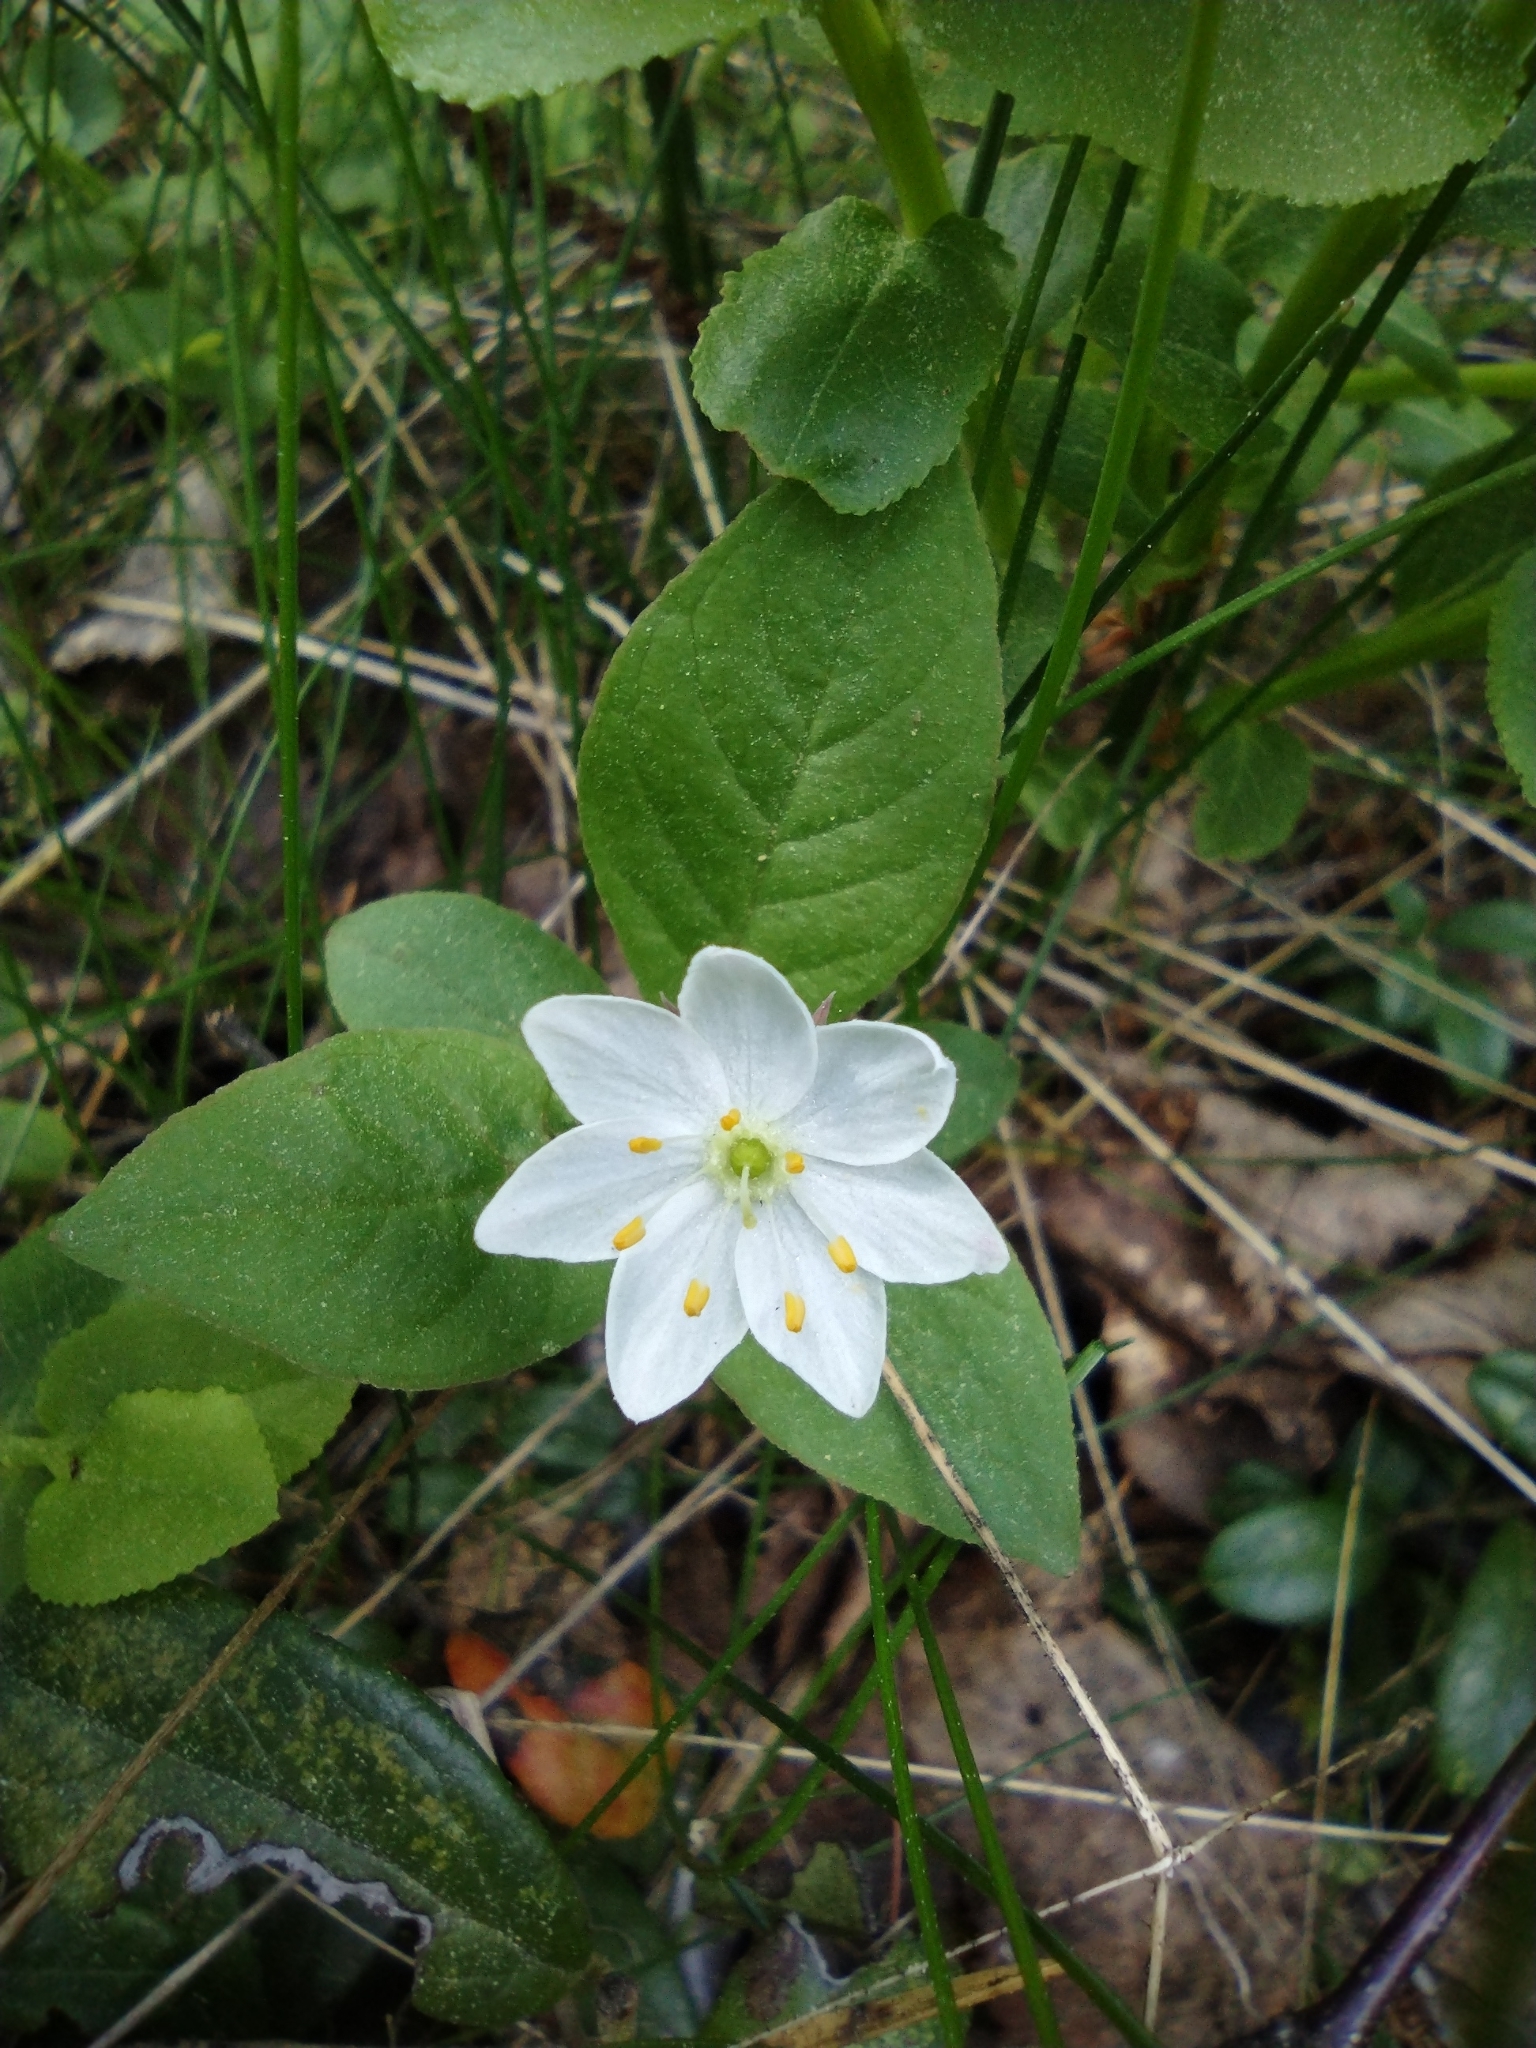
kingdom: Plantae
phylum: Tracheophyta
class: Magnoliopsida
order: Ericales
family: Primulaceae
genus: Lysimachia
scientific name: Lysimachia europaea
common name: Arctic starflower
